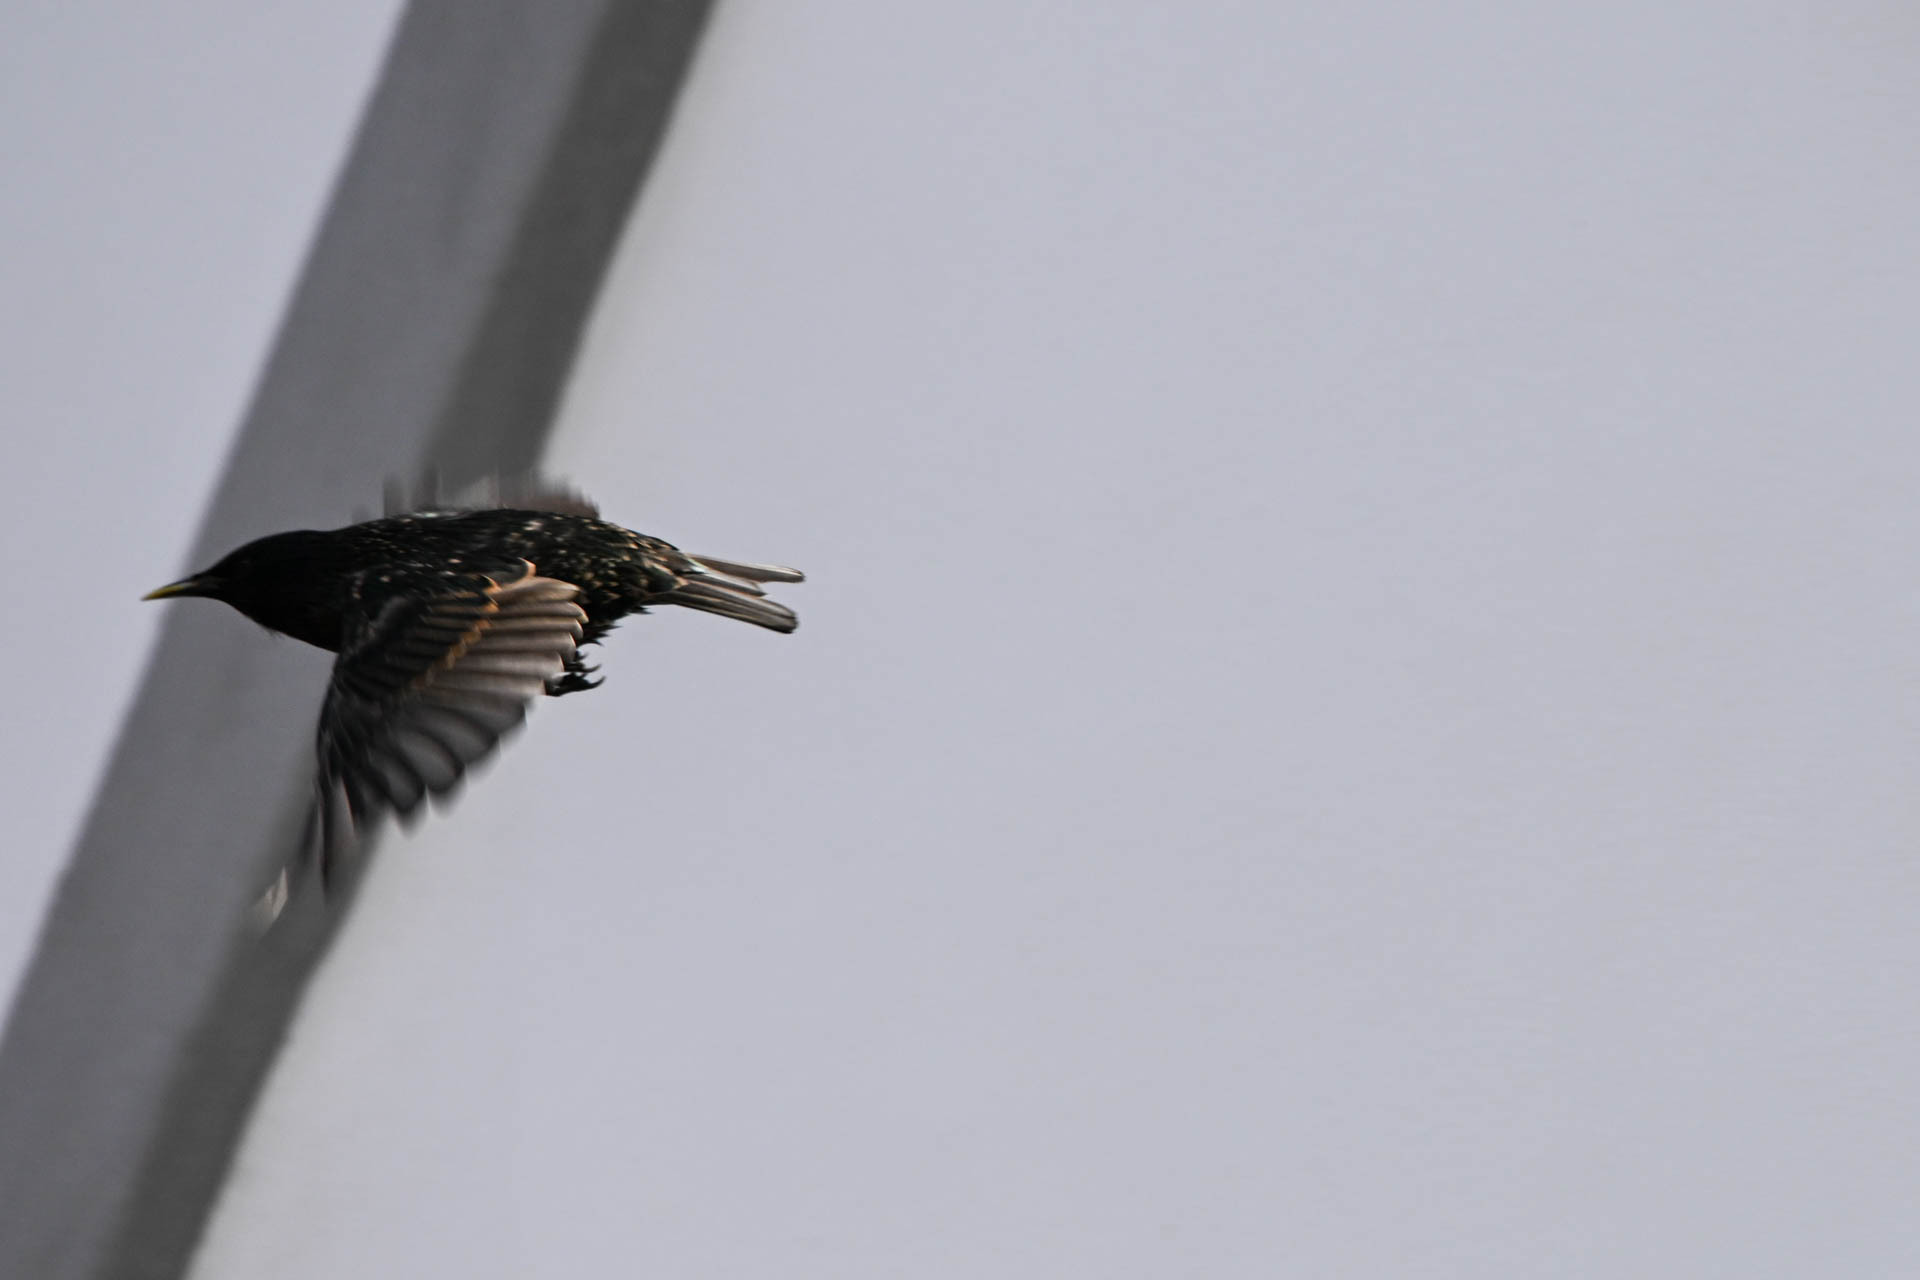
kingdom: Animalia
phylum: Chordata
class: Aves
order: Passeriformes
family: Sturnidae
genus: Sturnus
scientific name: Sturnus vulgaris
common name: Common starling
